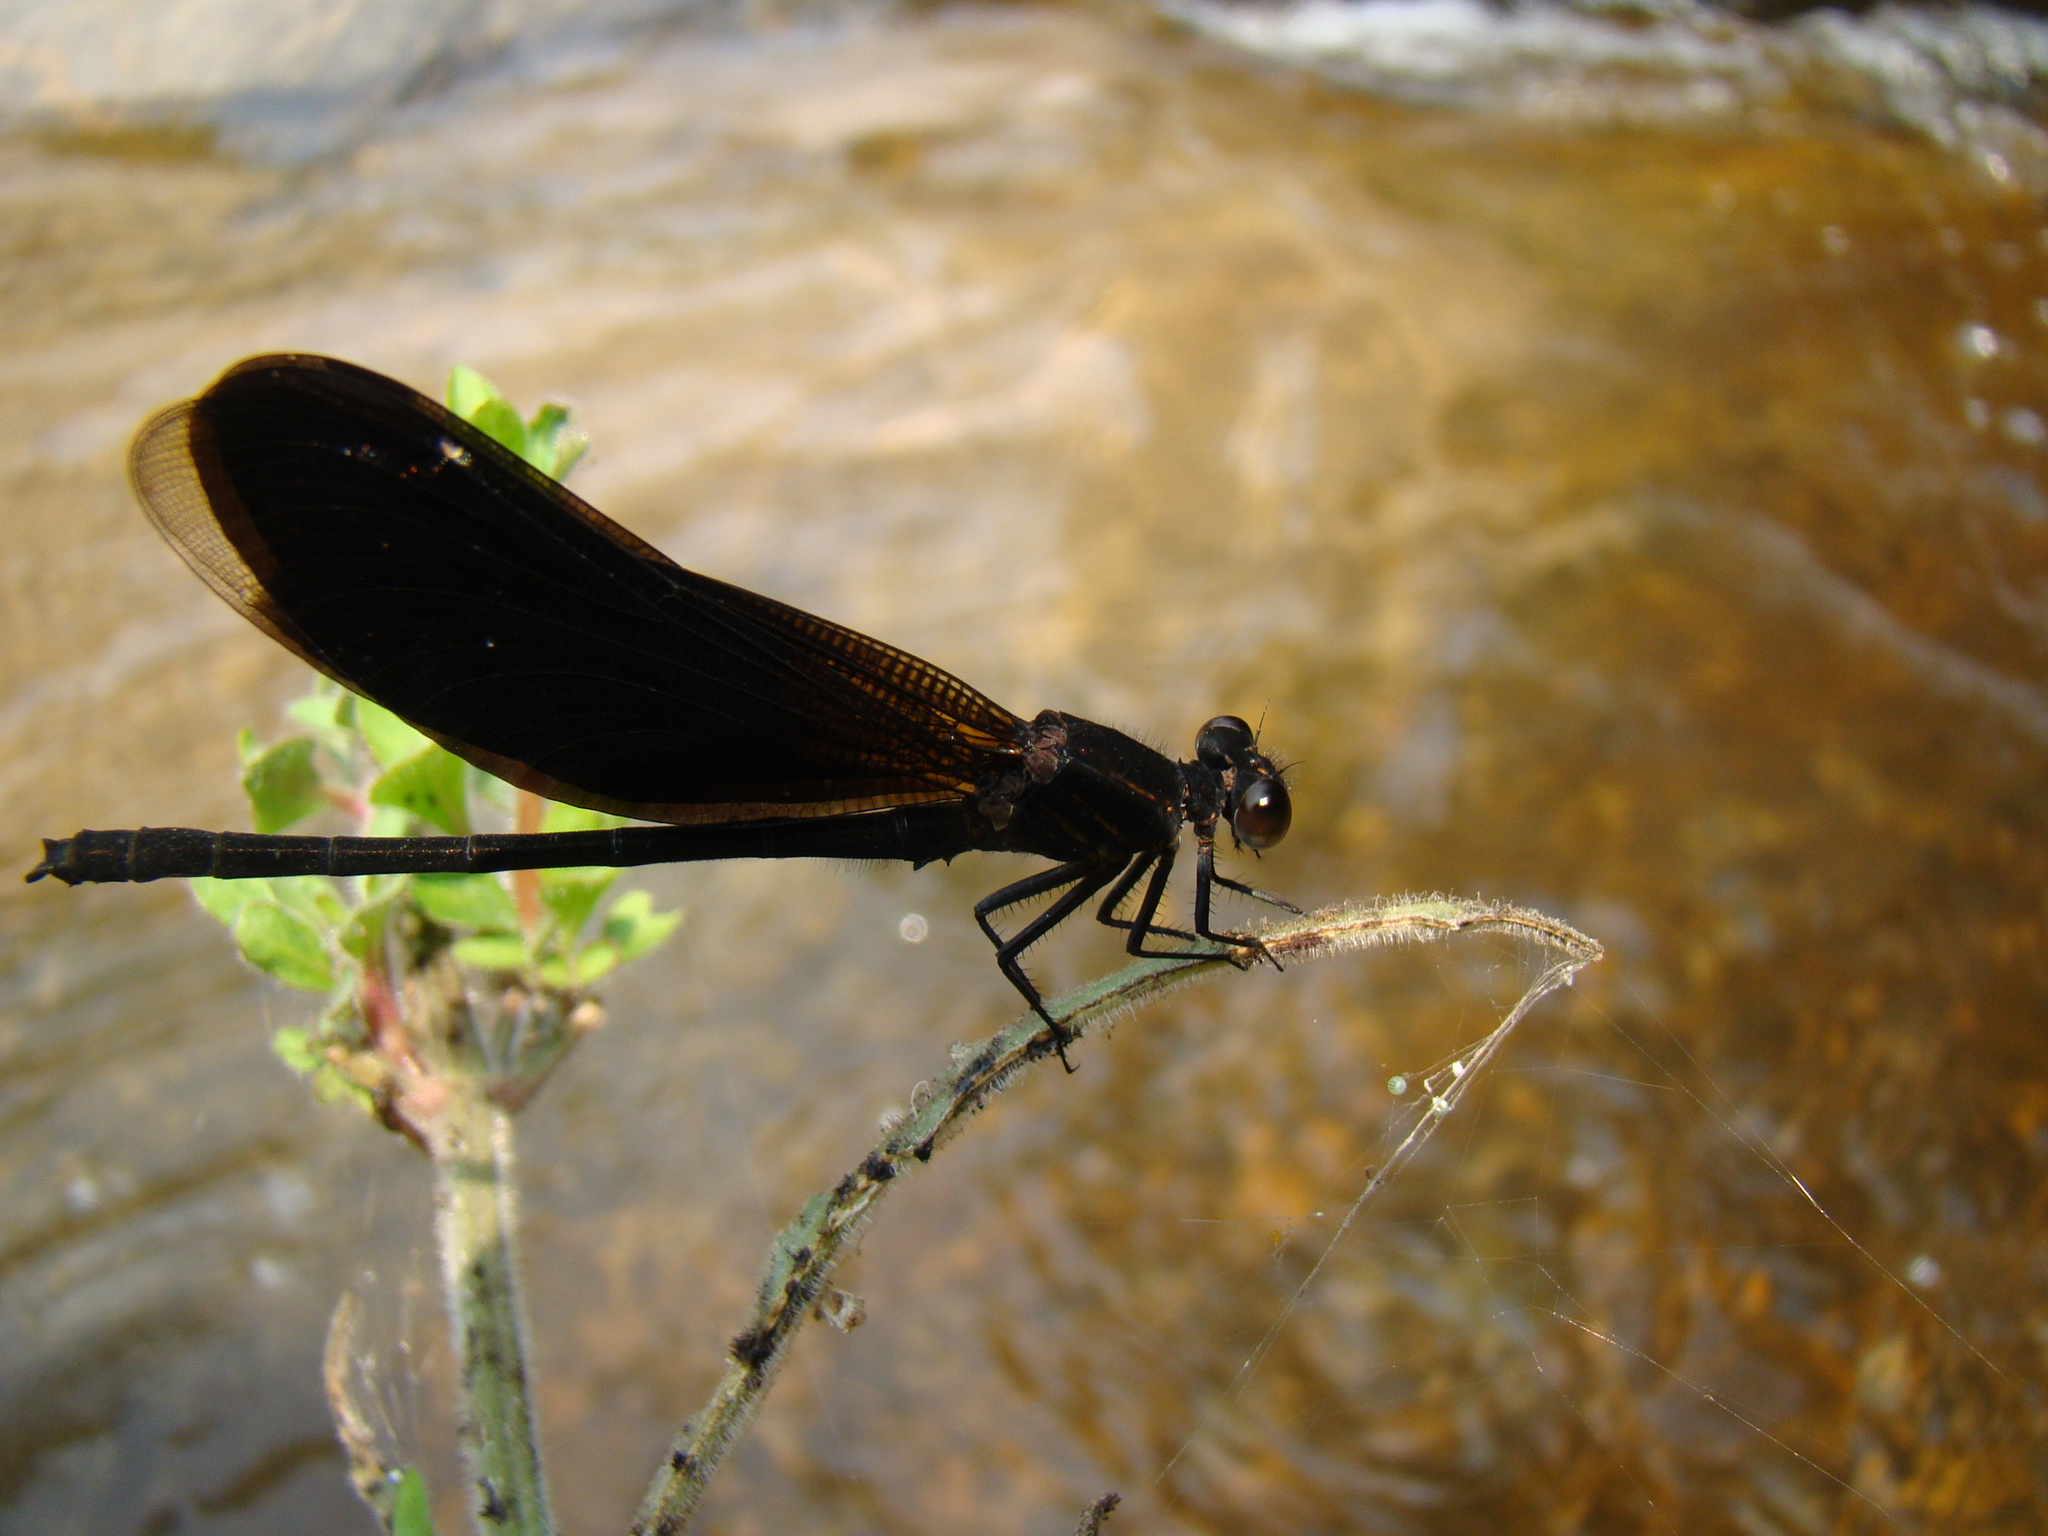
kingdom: Animalia
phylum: Arthropoda
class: Insecta
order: Odonata
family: Euphaeidae
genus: Euphaea
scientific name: Euphaea masoni
